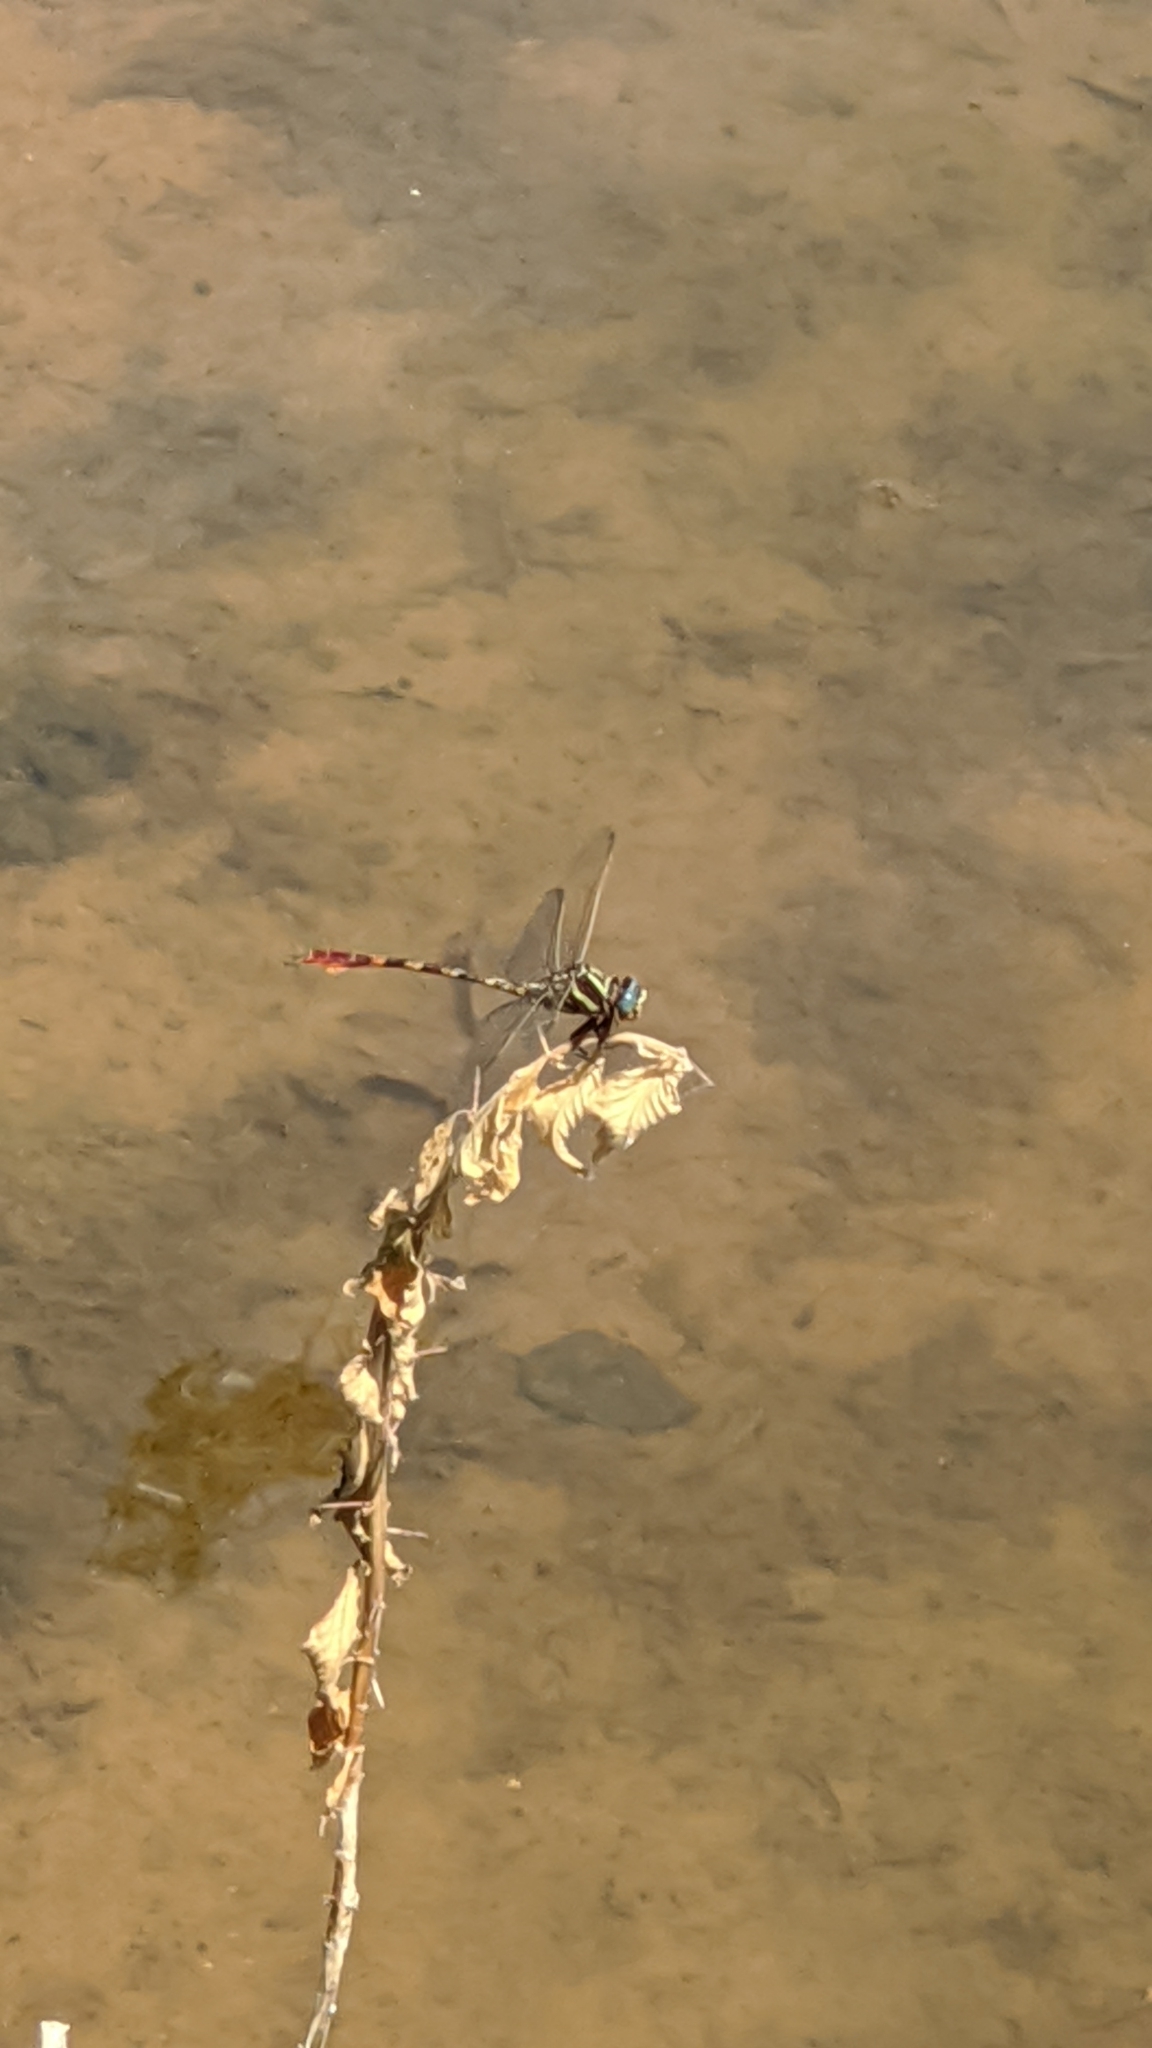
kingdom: Animalia
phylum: Arthropoda
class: Insecta
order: Odonata
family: Gomphidae
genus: Aphylla
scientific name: Aphylla williamsoni
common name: Two-striped forceptail
